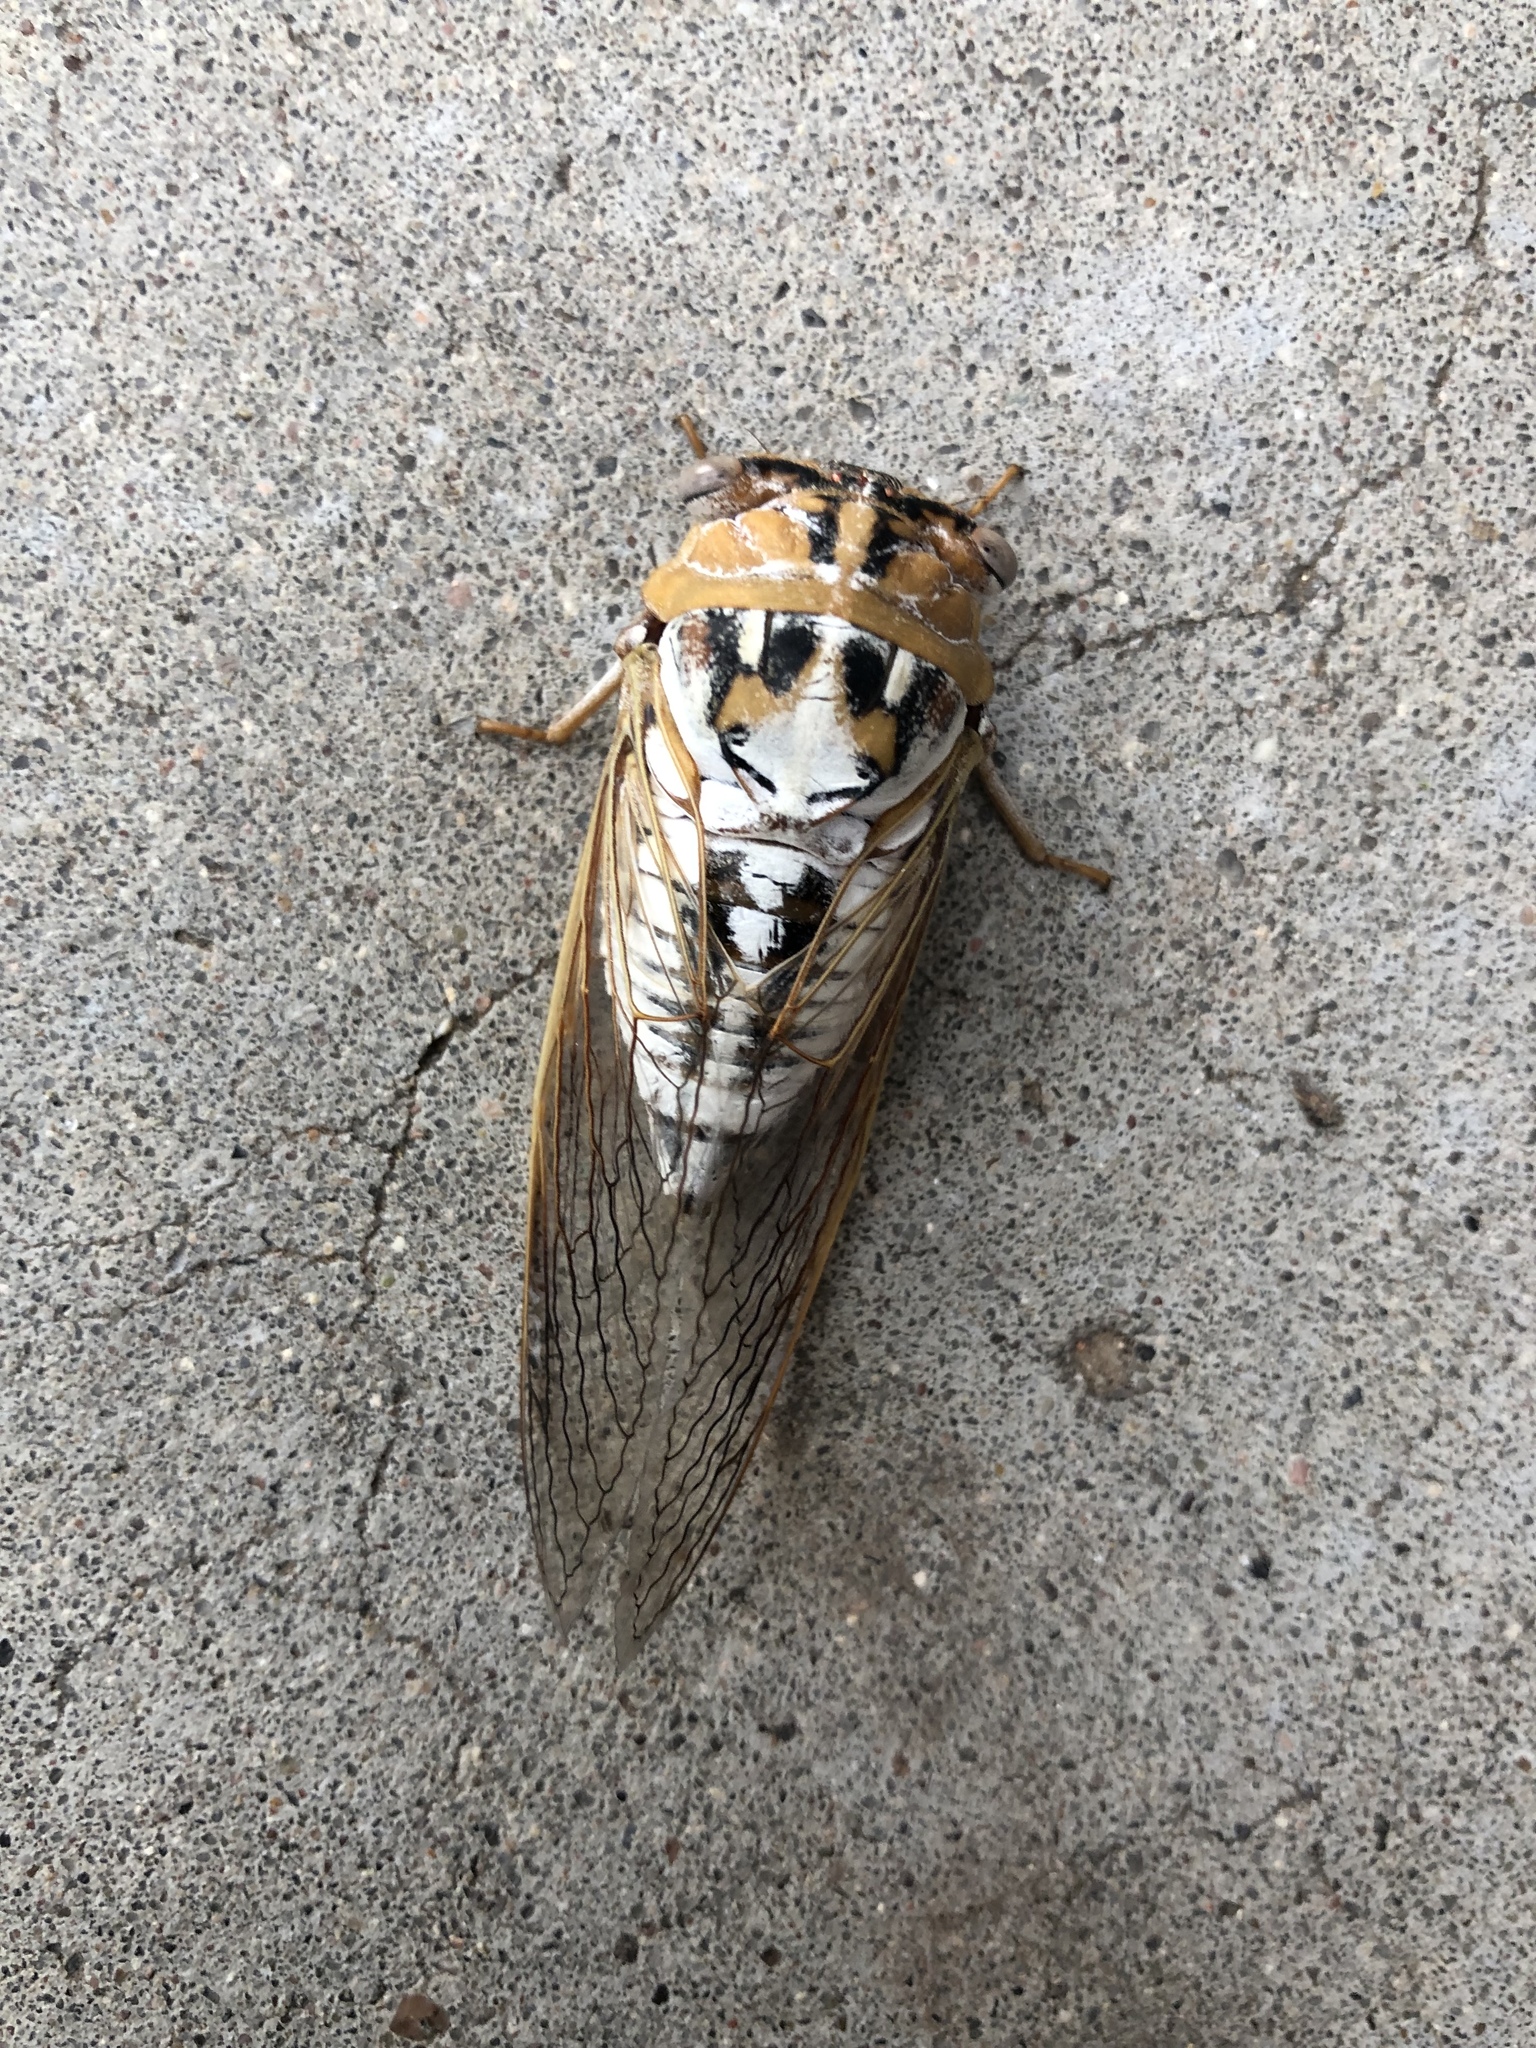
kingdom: Animalia
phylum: Arthropoda
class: Insecta
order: Hemiptera
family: Cicadidae
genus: Megatibicen
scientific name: Megatibicen dealbatus
